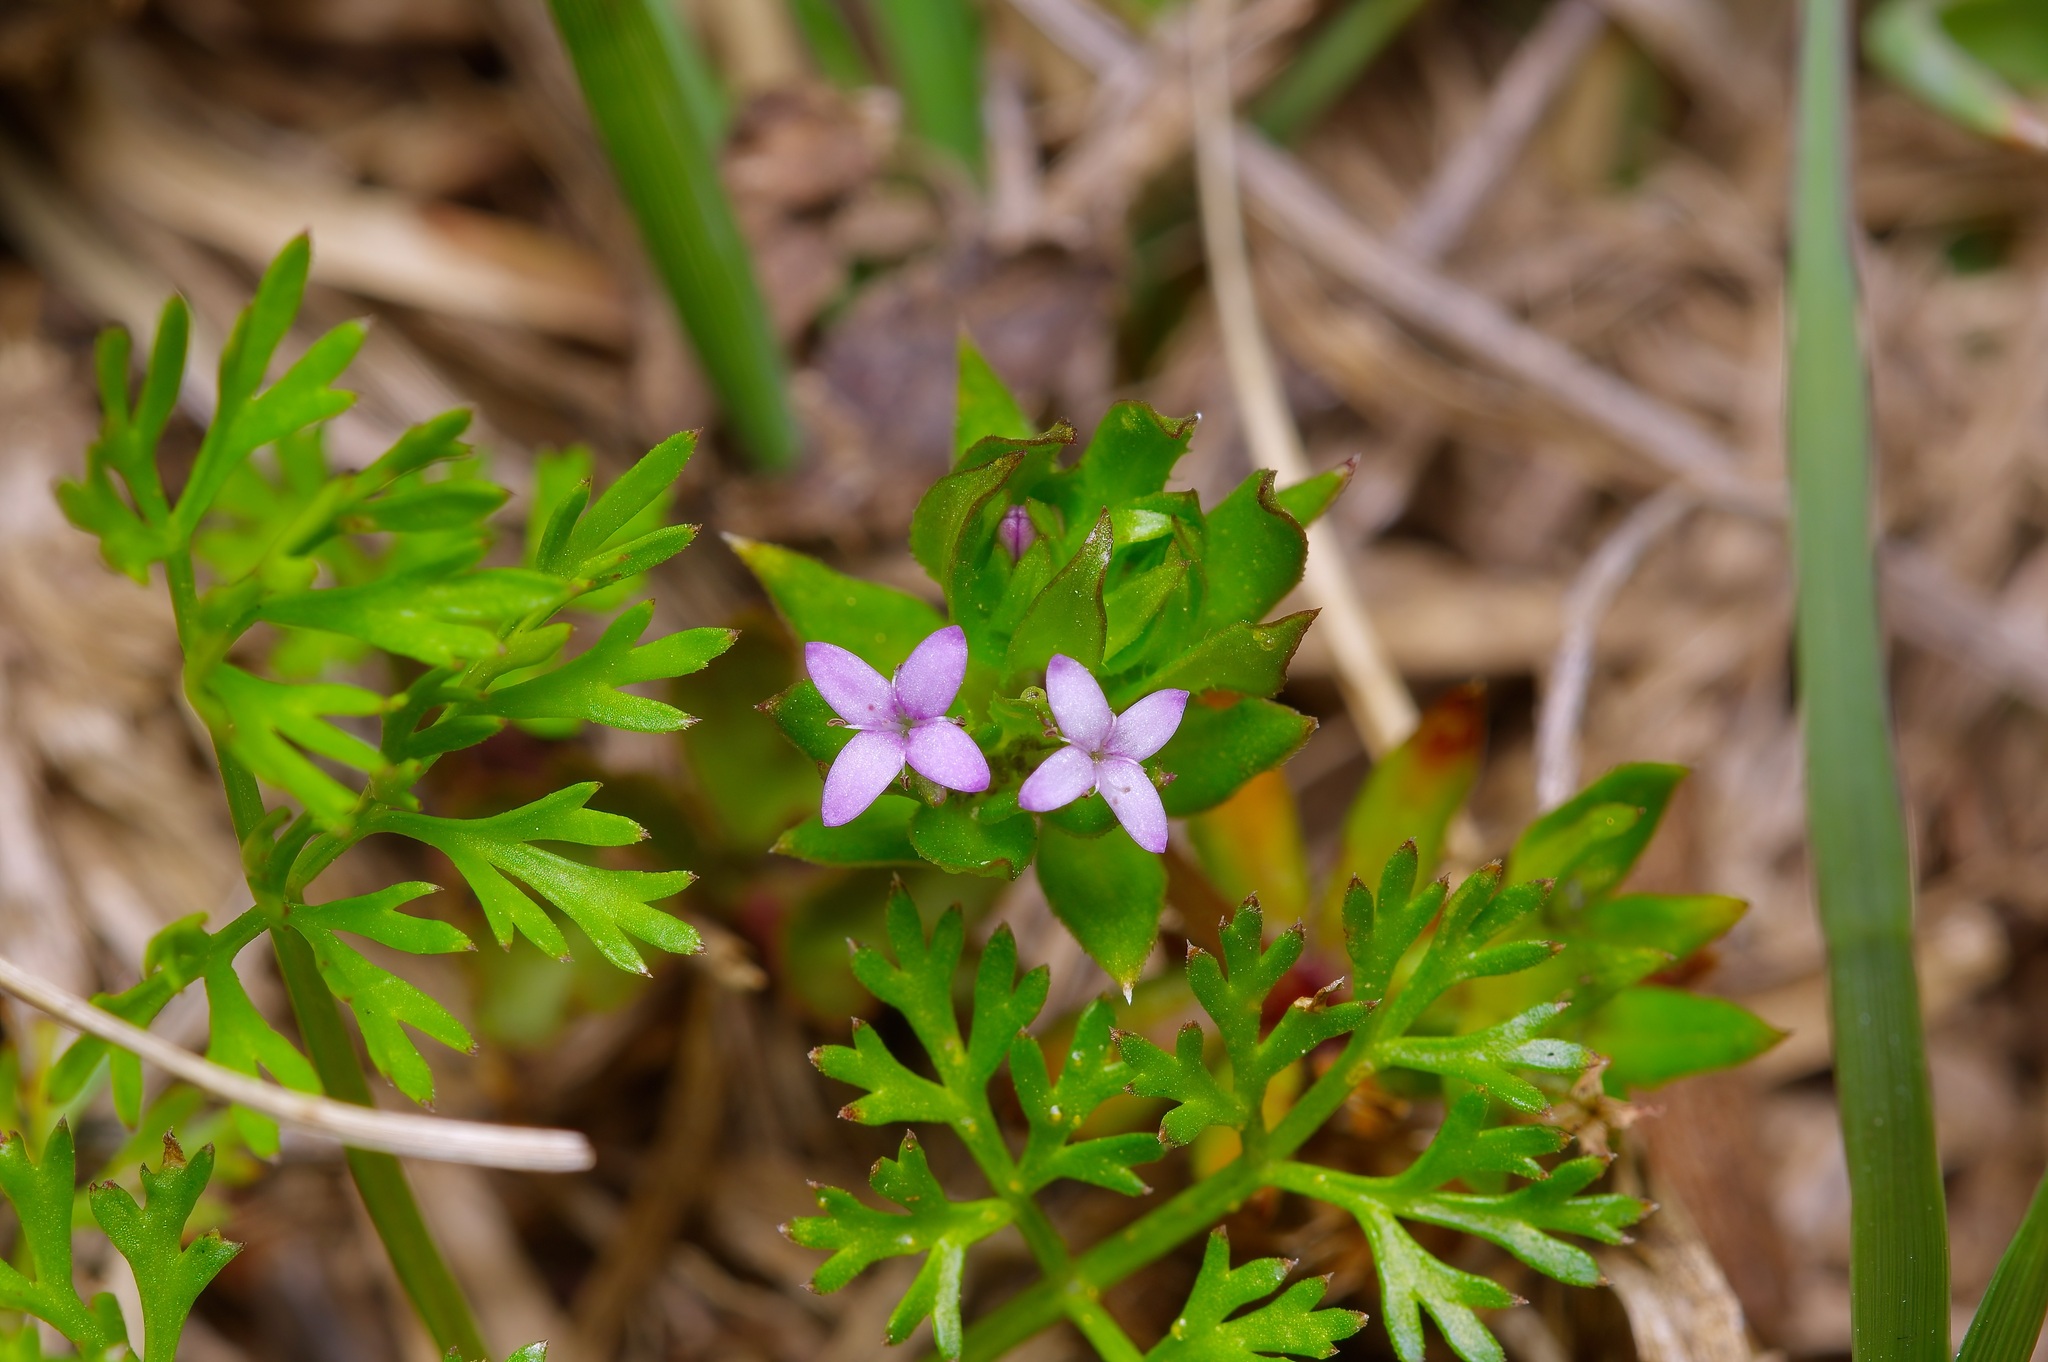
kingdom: Plantae
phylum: Tracheophyta
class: Magnoliopsida
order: Gentianales
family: Rubiaceae
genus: Sherardia
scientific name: Sherardia arvensis
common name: Field madder
